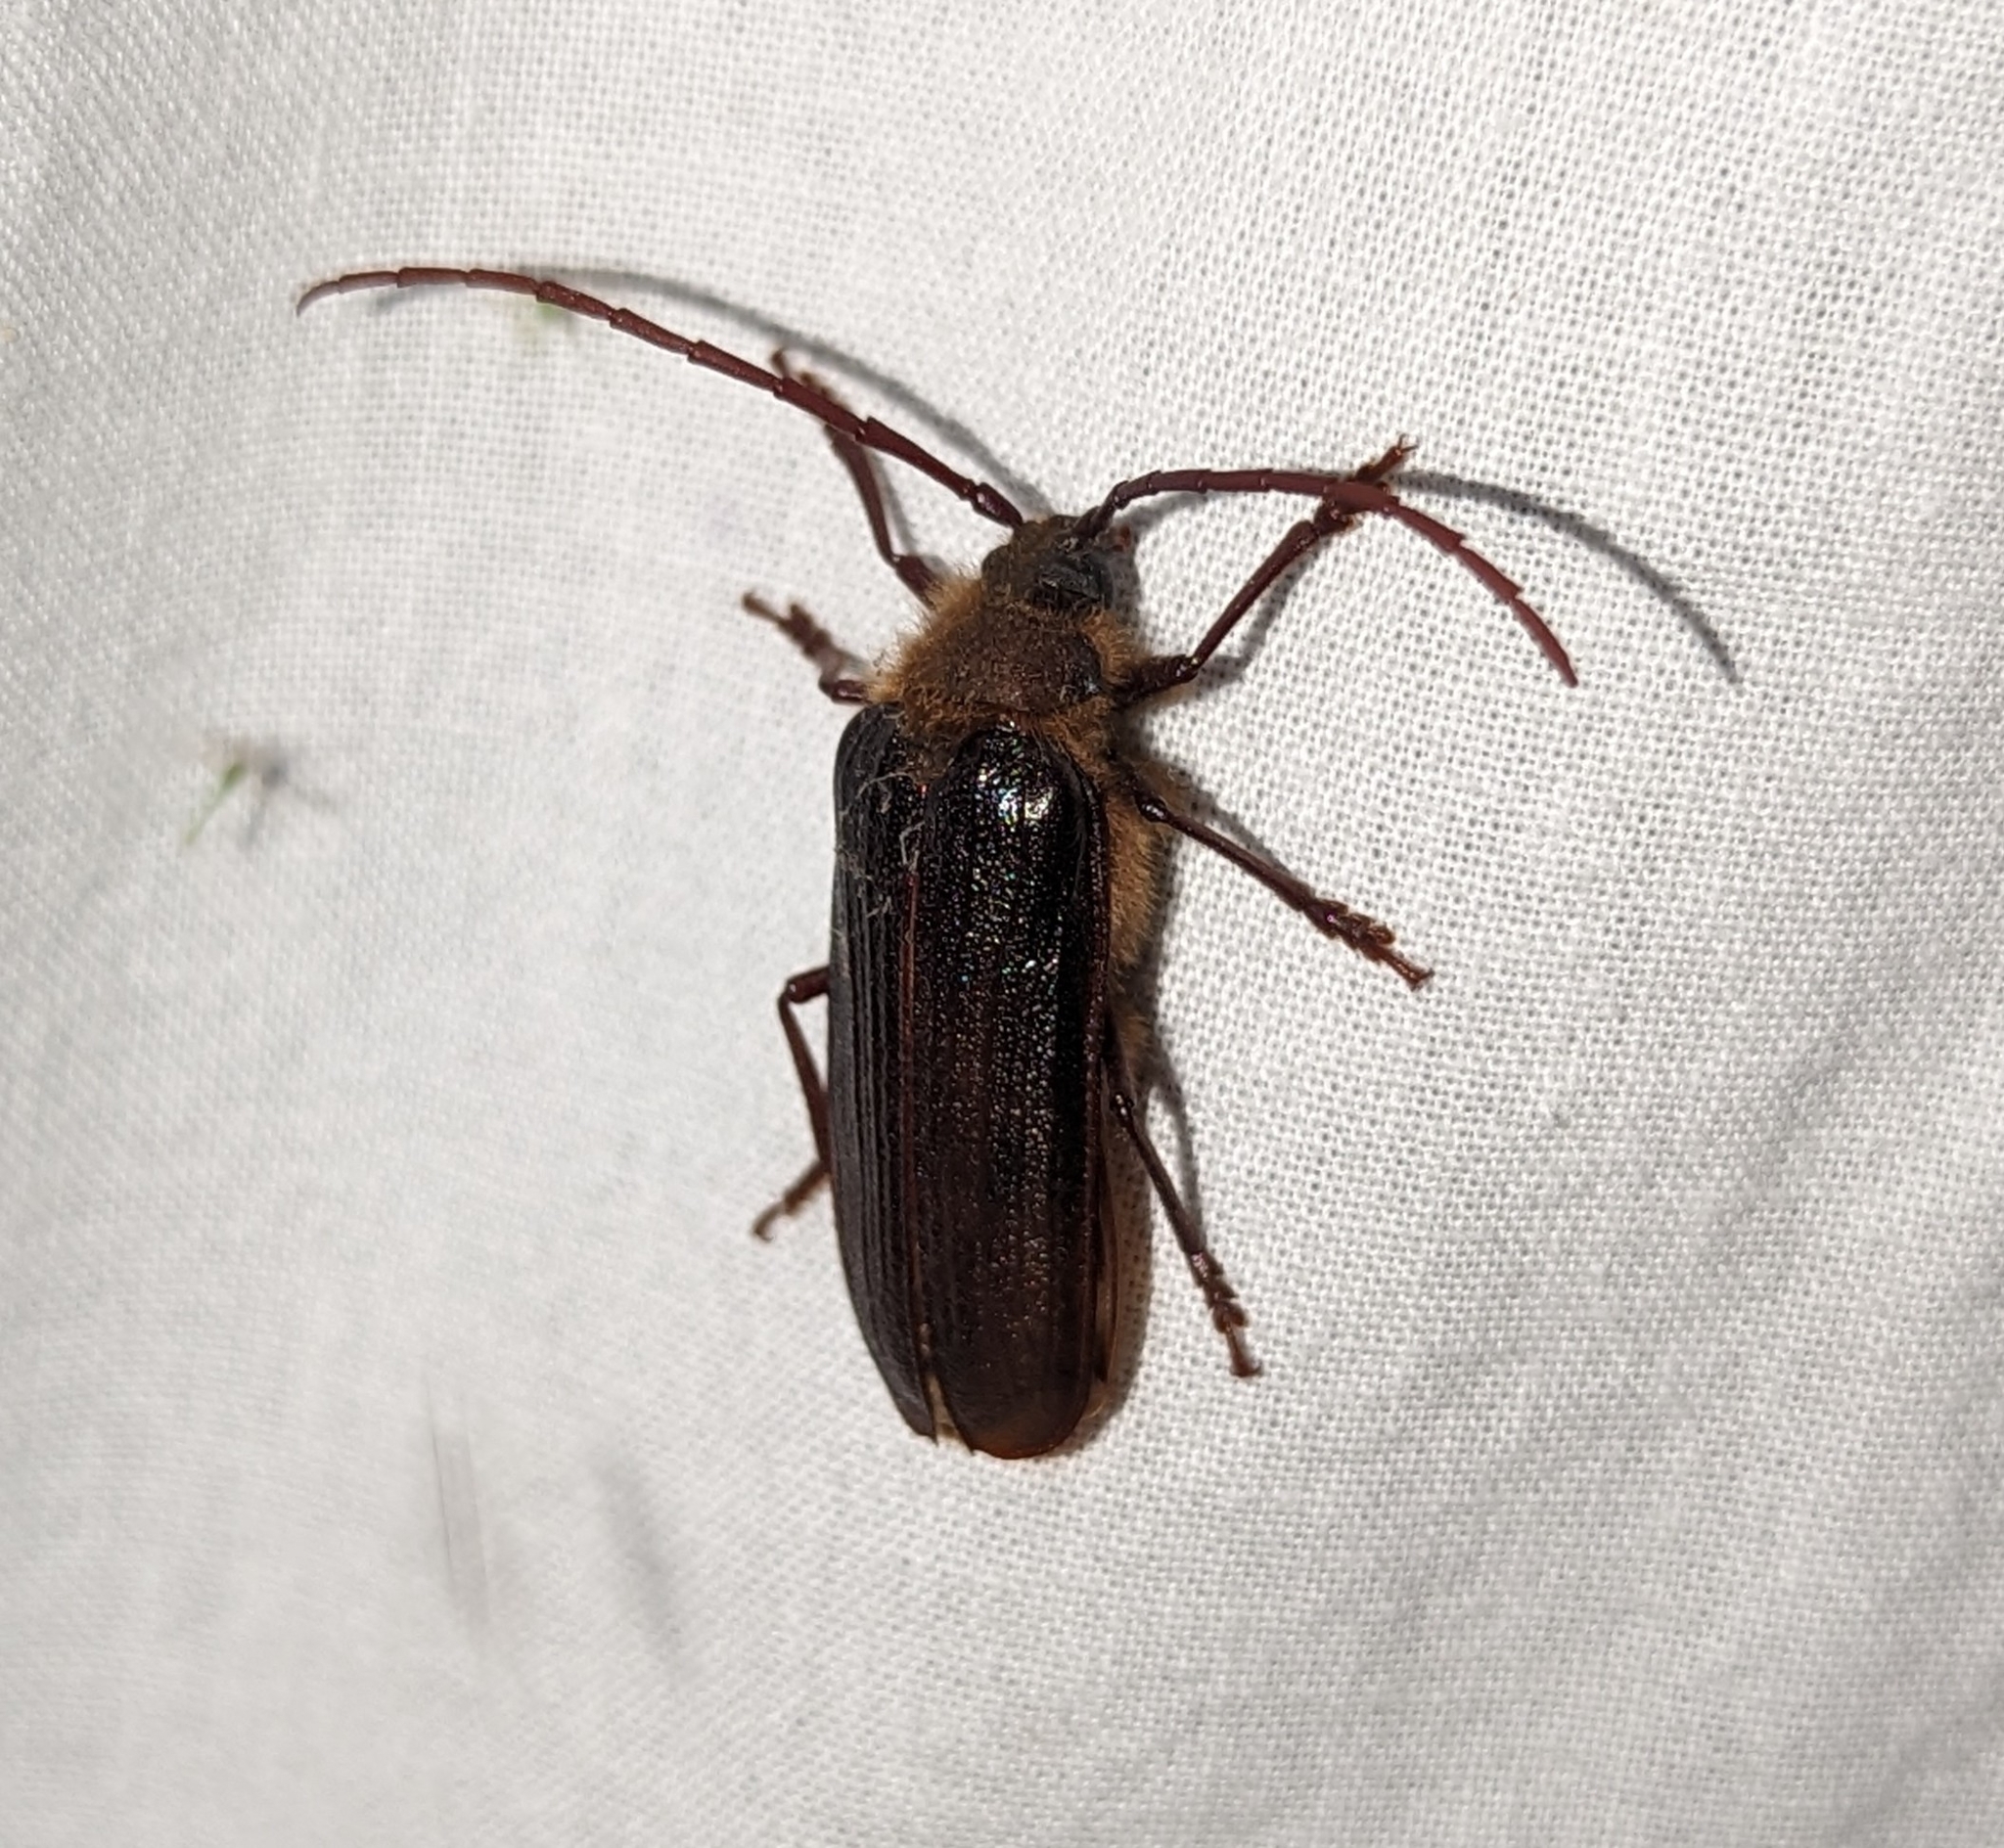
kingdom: Animalia
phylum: Arthropoda
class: Insecta
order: Coleoptera
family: Cerambycidae
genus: Tragosoma
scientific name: Tragosoma harrisii
